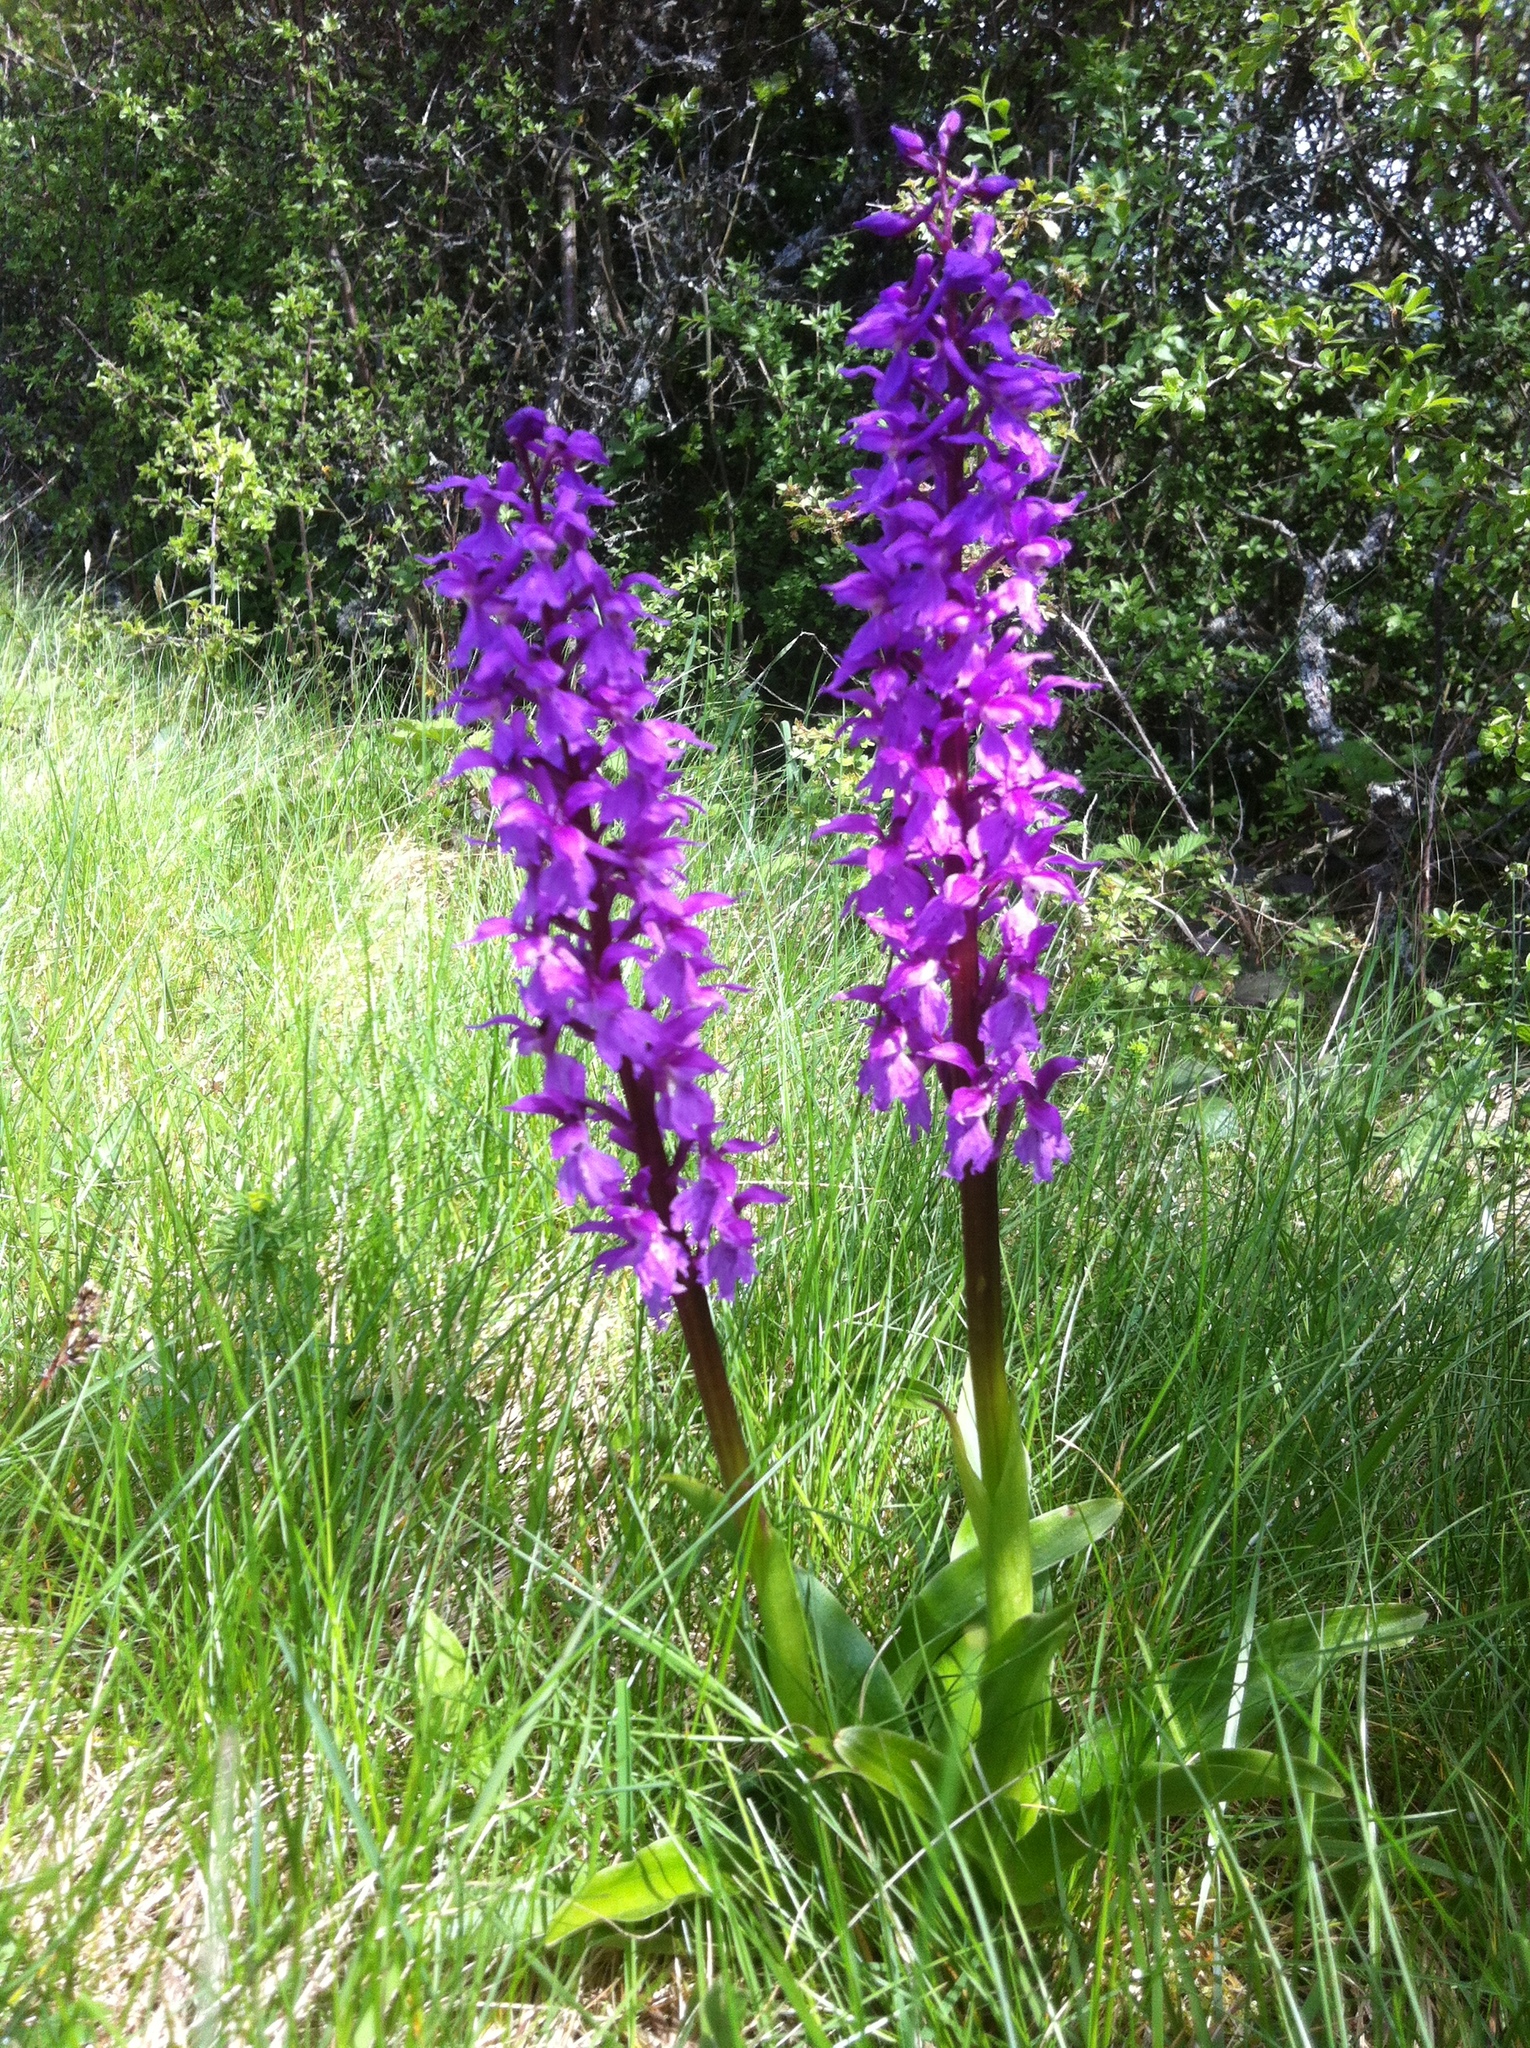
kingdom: Plantae
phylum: Tracheophyta
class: Liliopsida
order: Asparagales
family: Orchidaceae
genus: Orchis
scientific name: Orchis mascula
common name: Early-purple orchid
